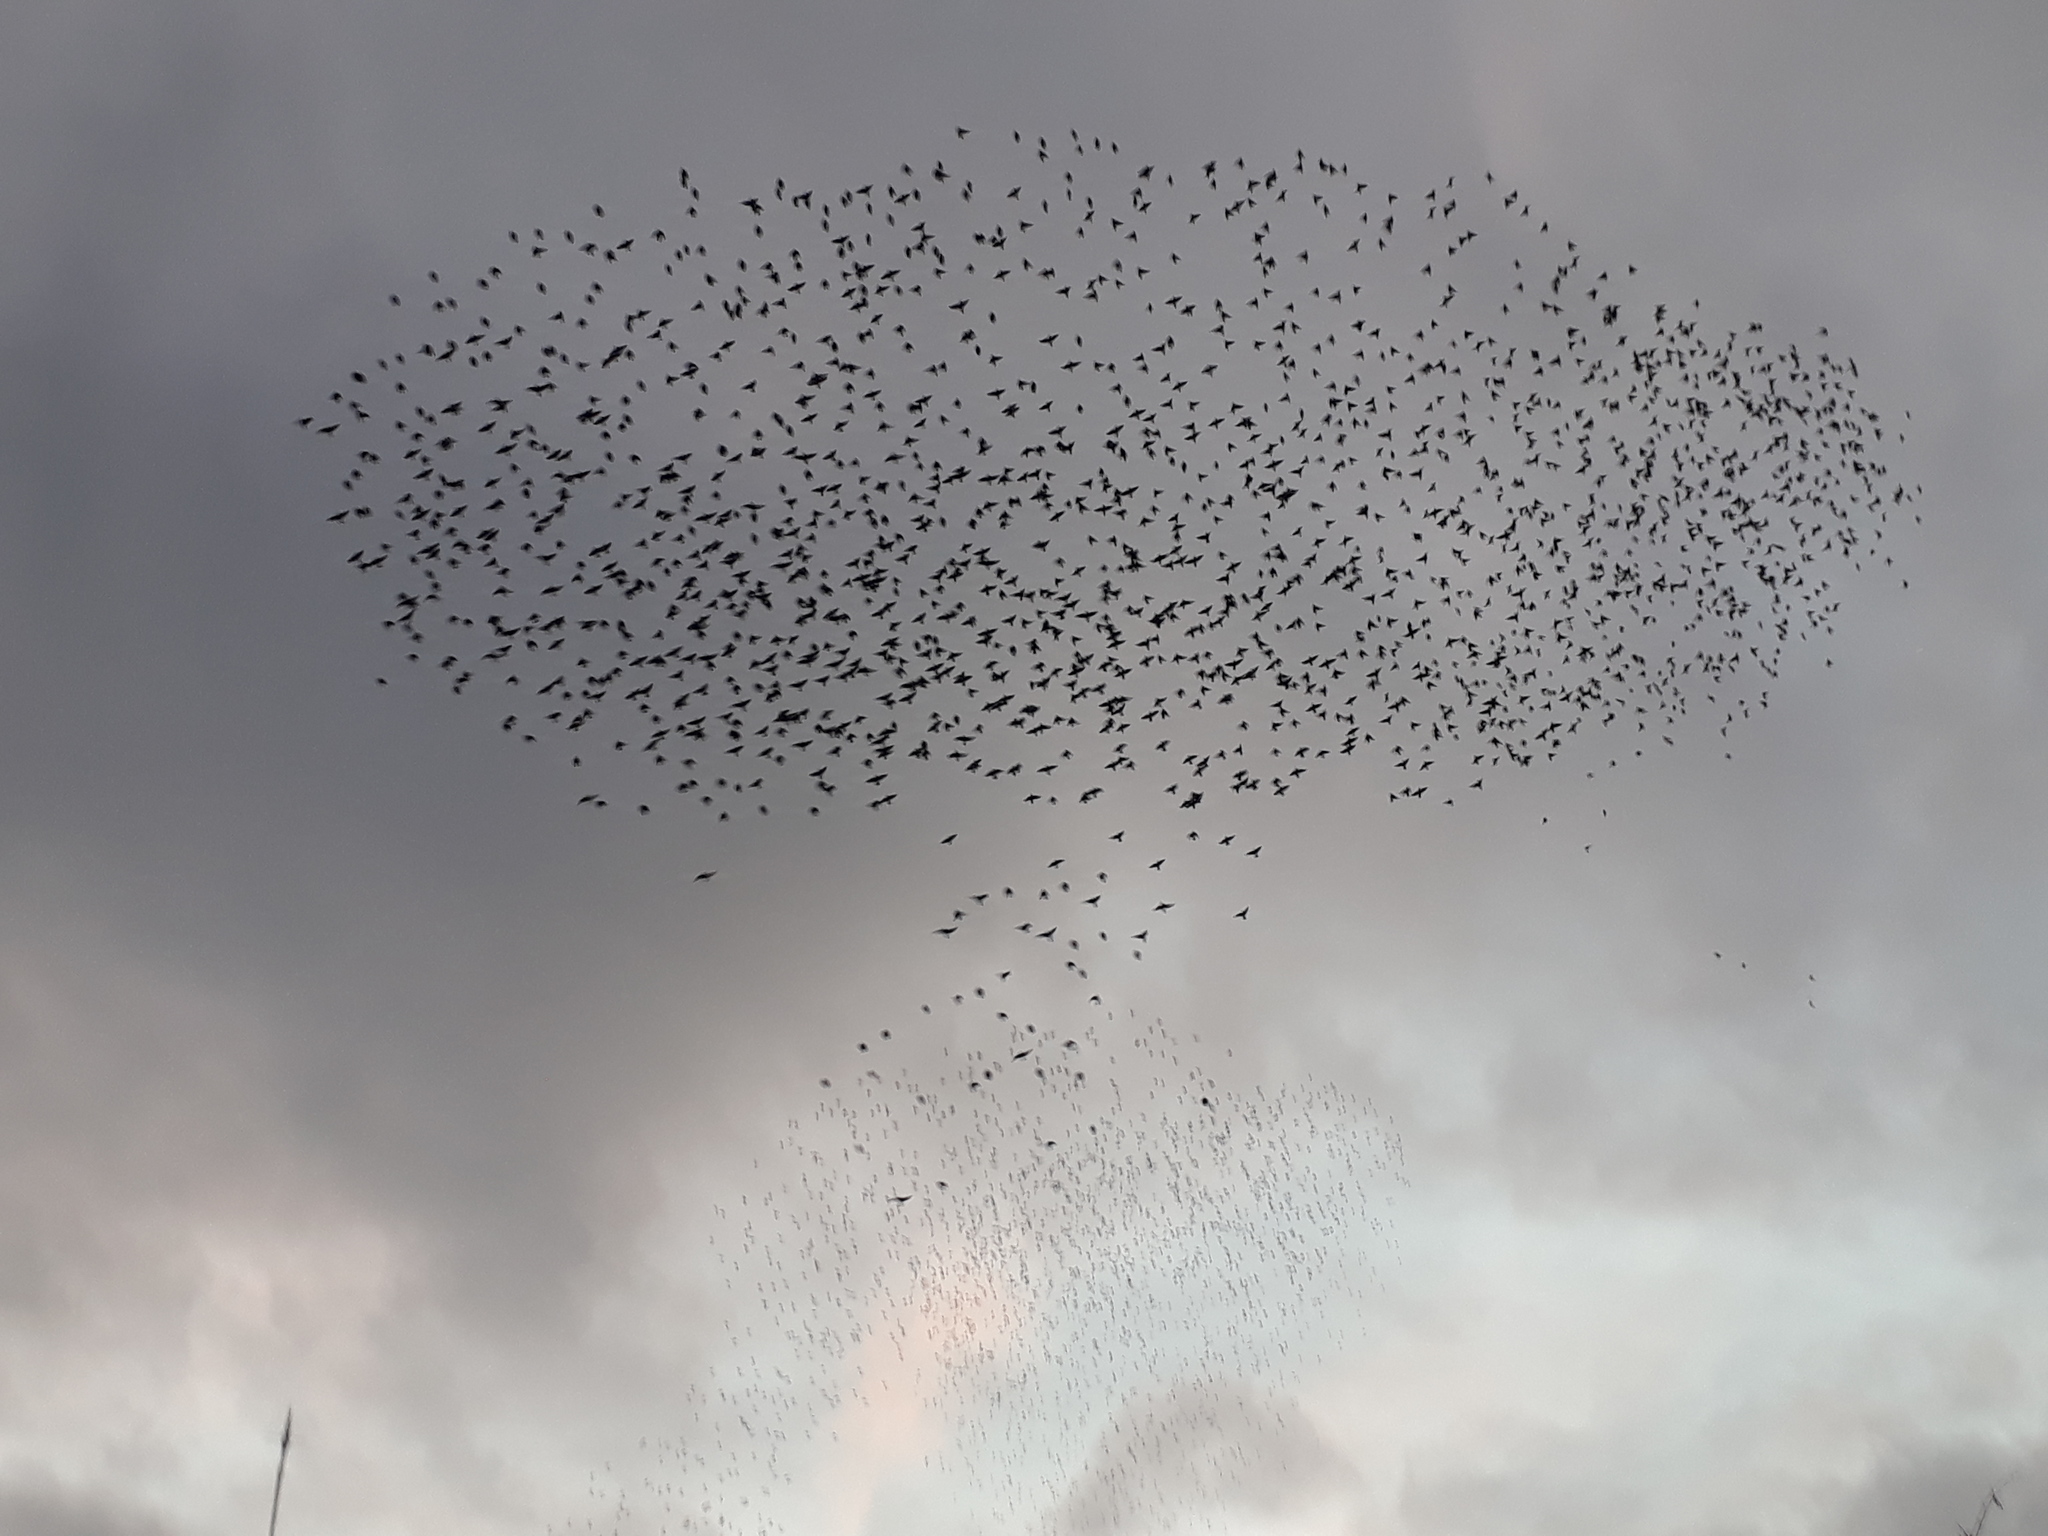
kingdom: Animalia
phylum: Chordata
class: Aves
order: Passeriformes
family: Sturnidae
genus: Sturnus
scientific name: Sturnus vulgaris
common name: Common starling
